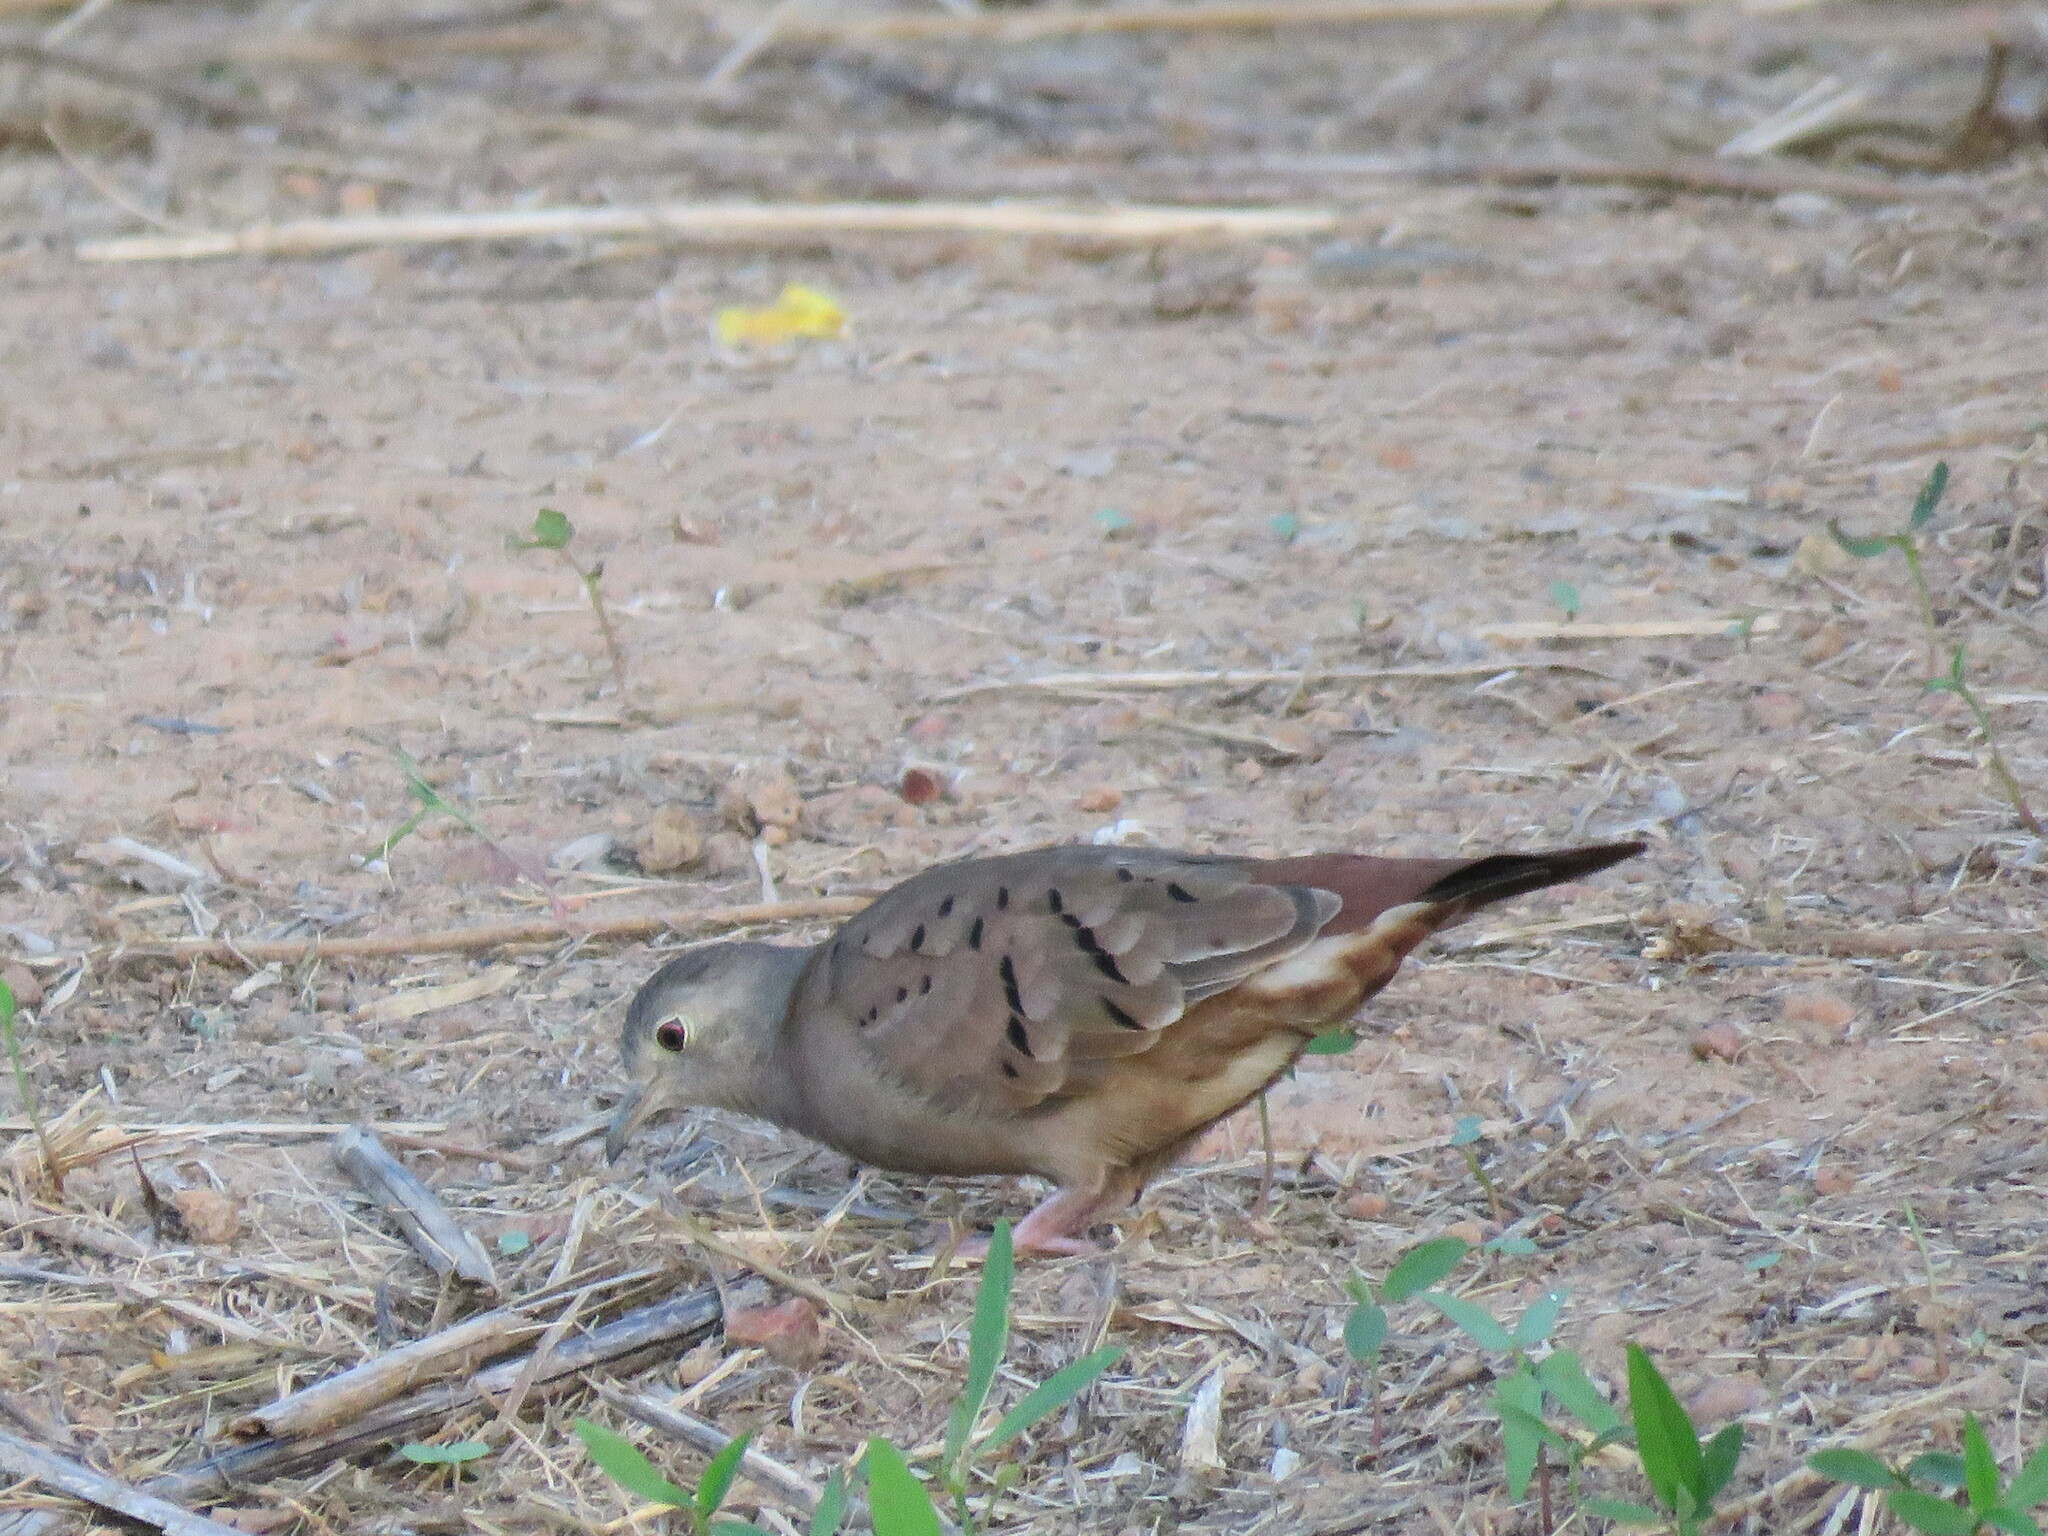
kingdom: Animalia
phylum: Chordata
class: Aves
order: Columbiformes
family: Columbidae
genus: Columbina
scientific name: Columbina talpacoti
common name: Ruddy ground dove
